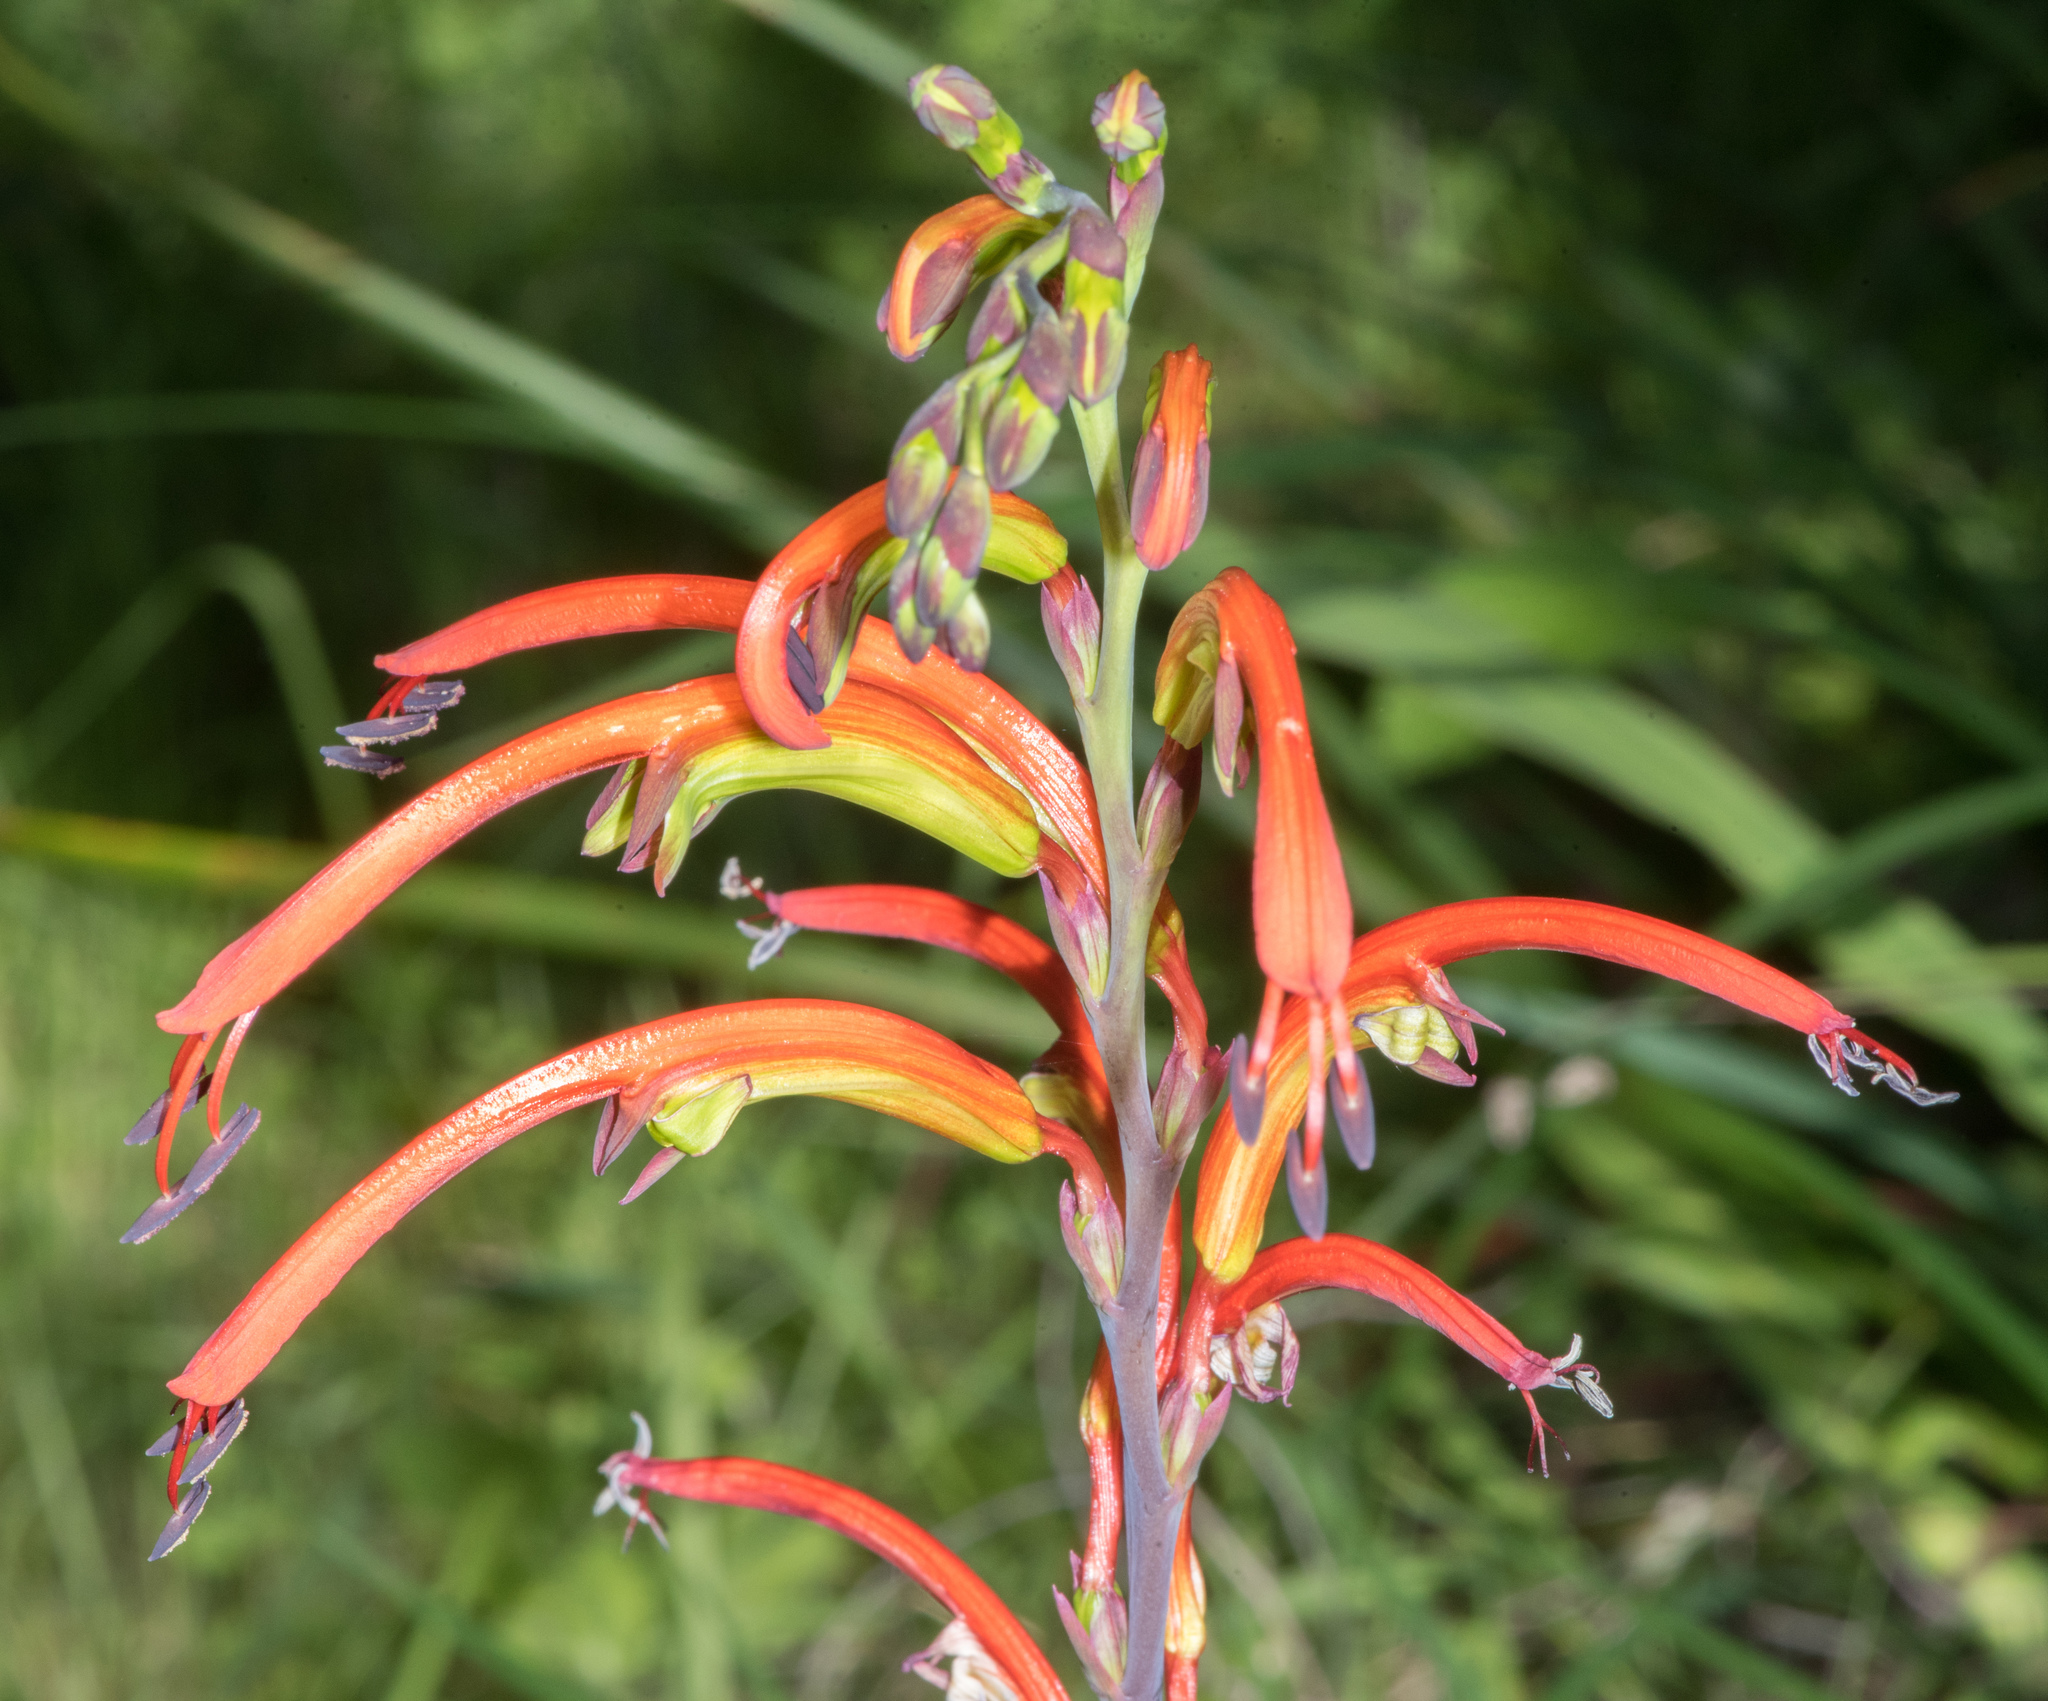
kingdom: Plantae
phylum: Tracheophyta
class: Liliopsida
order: Asparagales
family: Iridaceae
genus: Chasmanthe
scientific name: Chasmanthe bicolor
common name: Bicolor cobra lily
